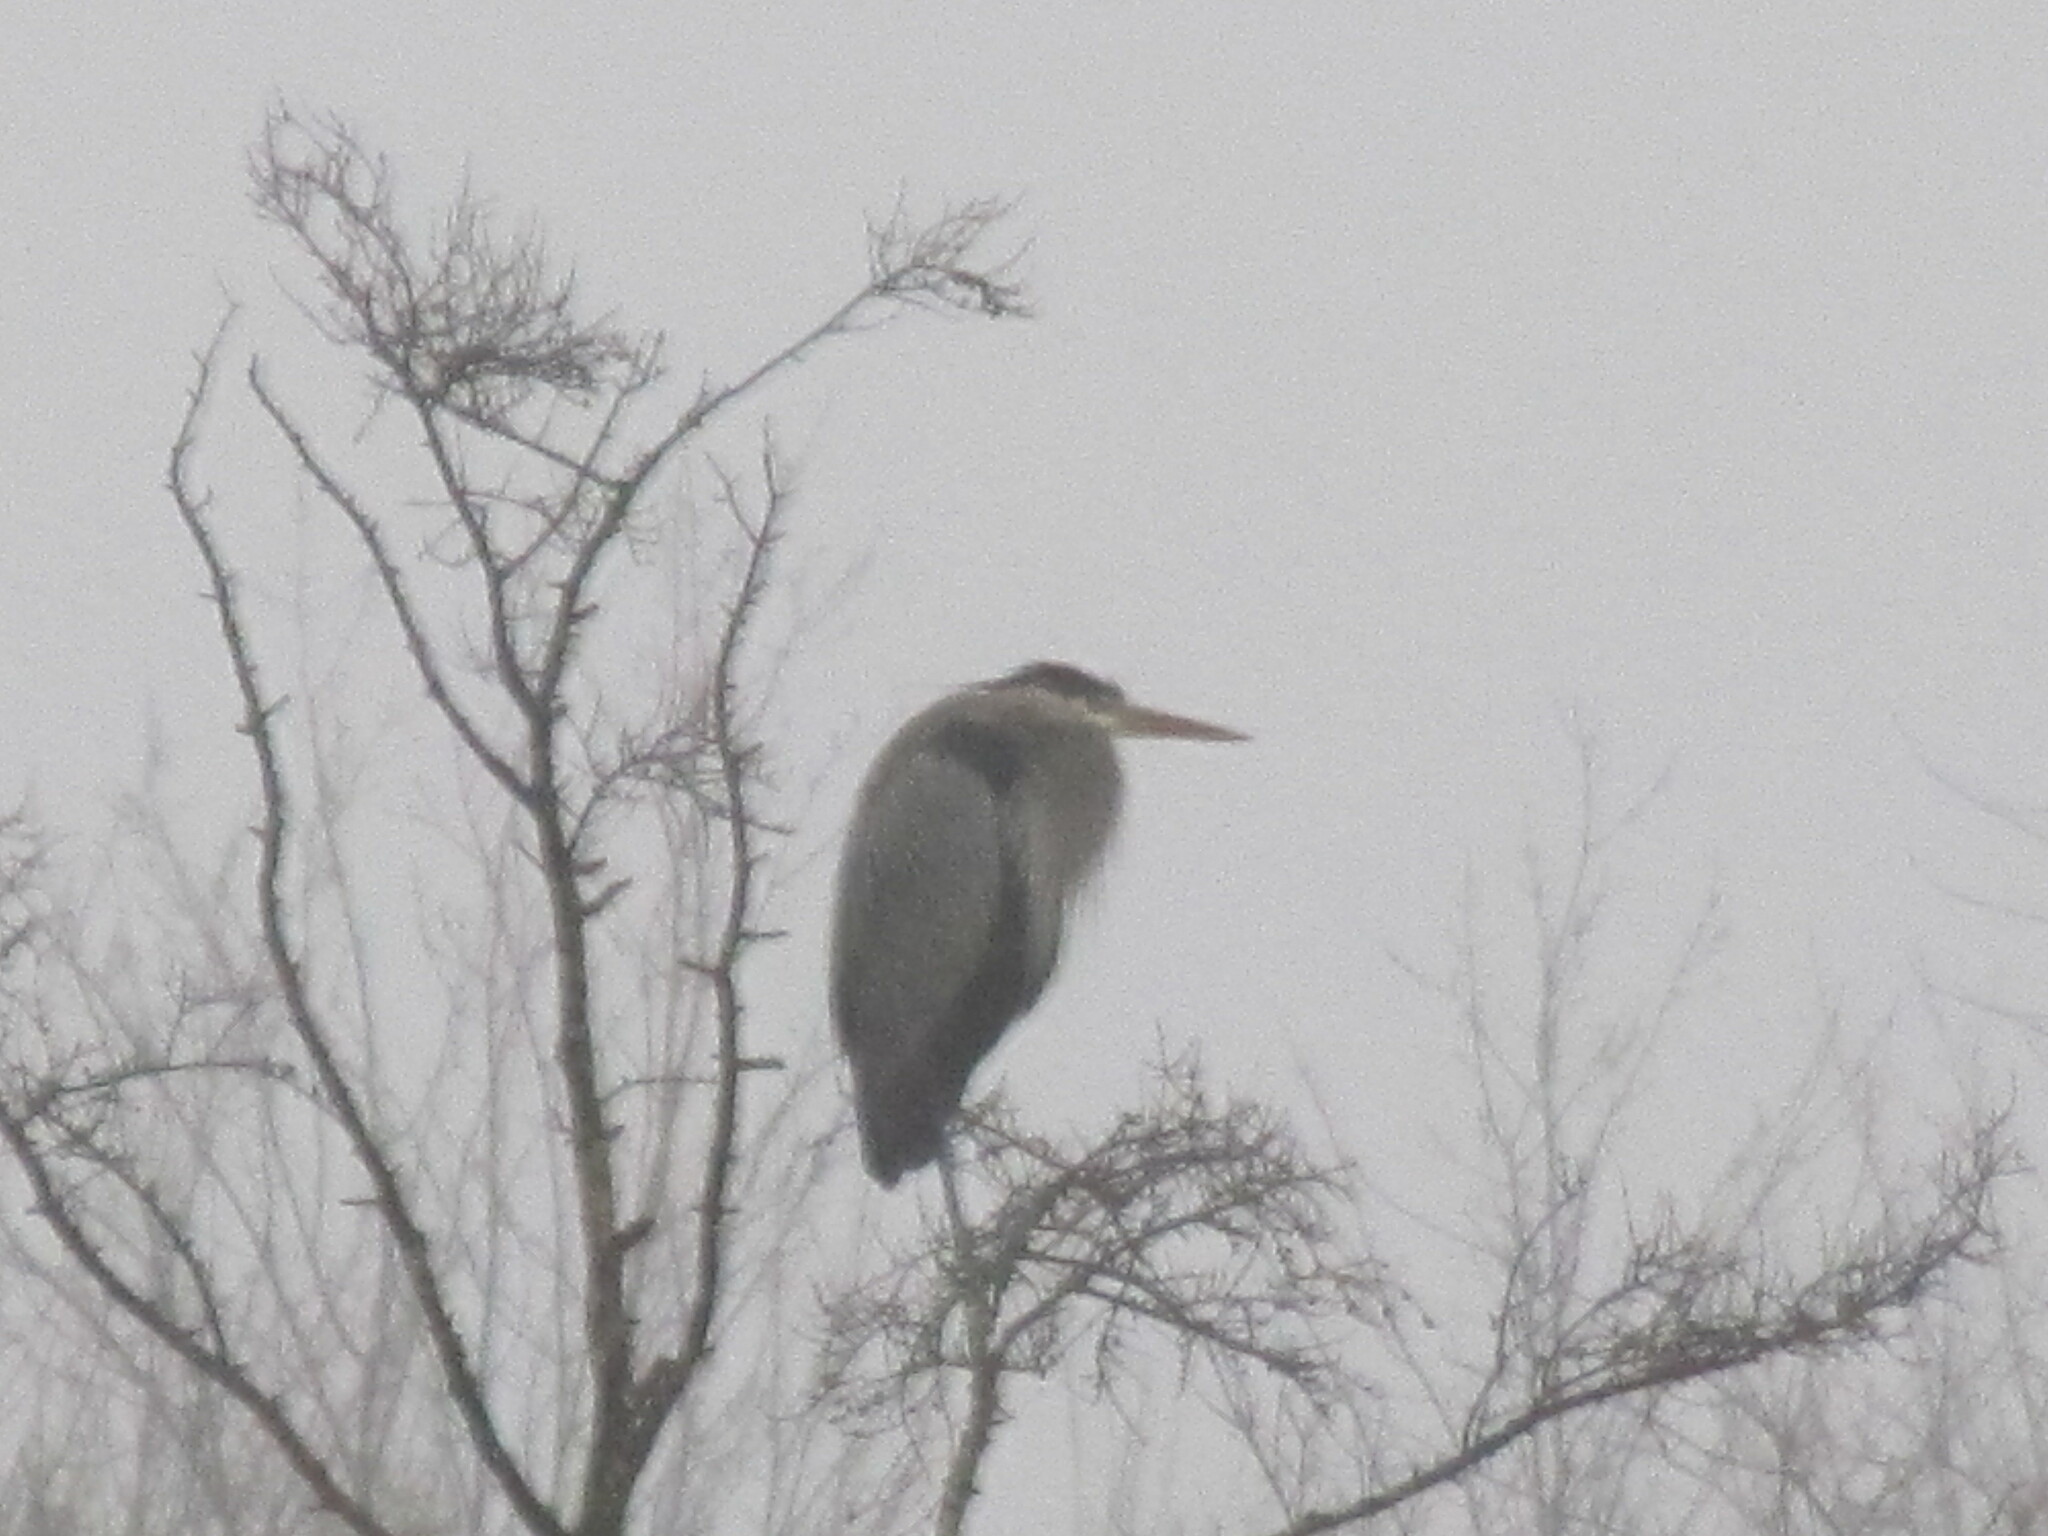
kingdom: Animalia
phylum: Chordata
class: Aves
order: Pelecaniformes
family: Ardeidae
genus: Ardea
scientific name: Ardea herodias
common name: Great blue heron
